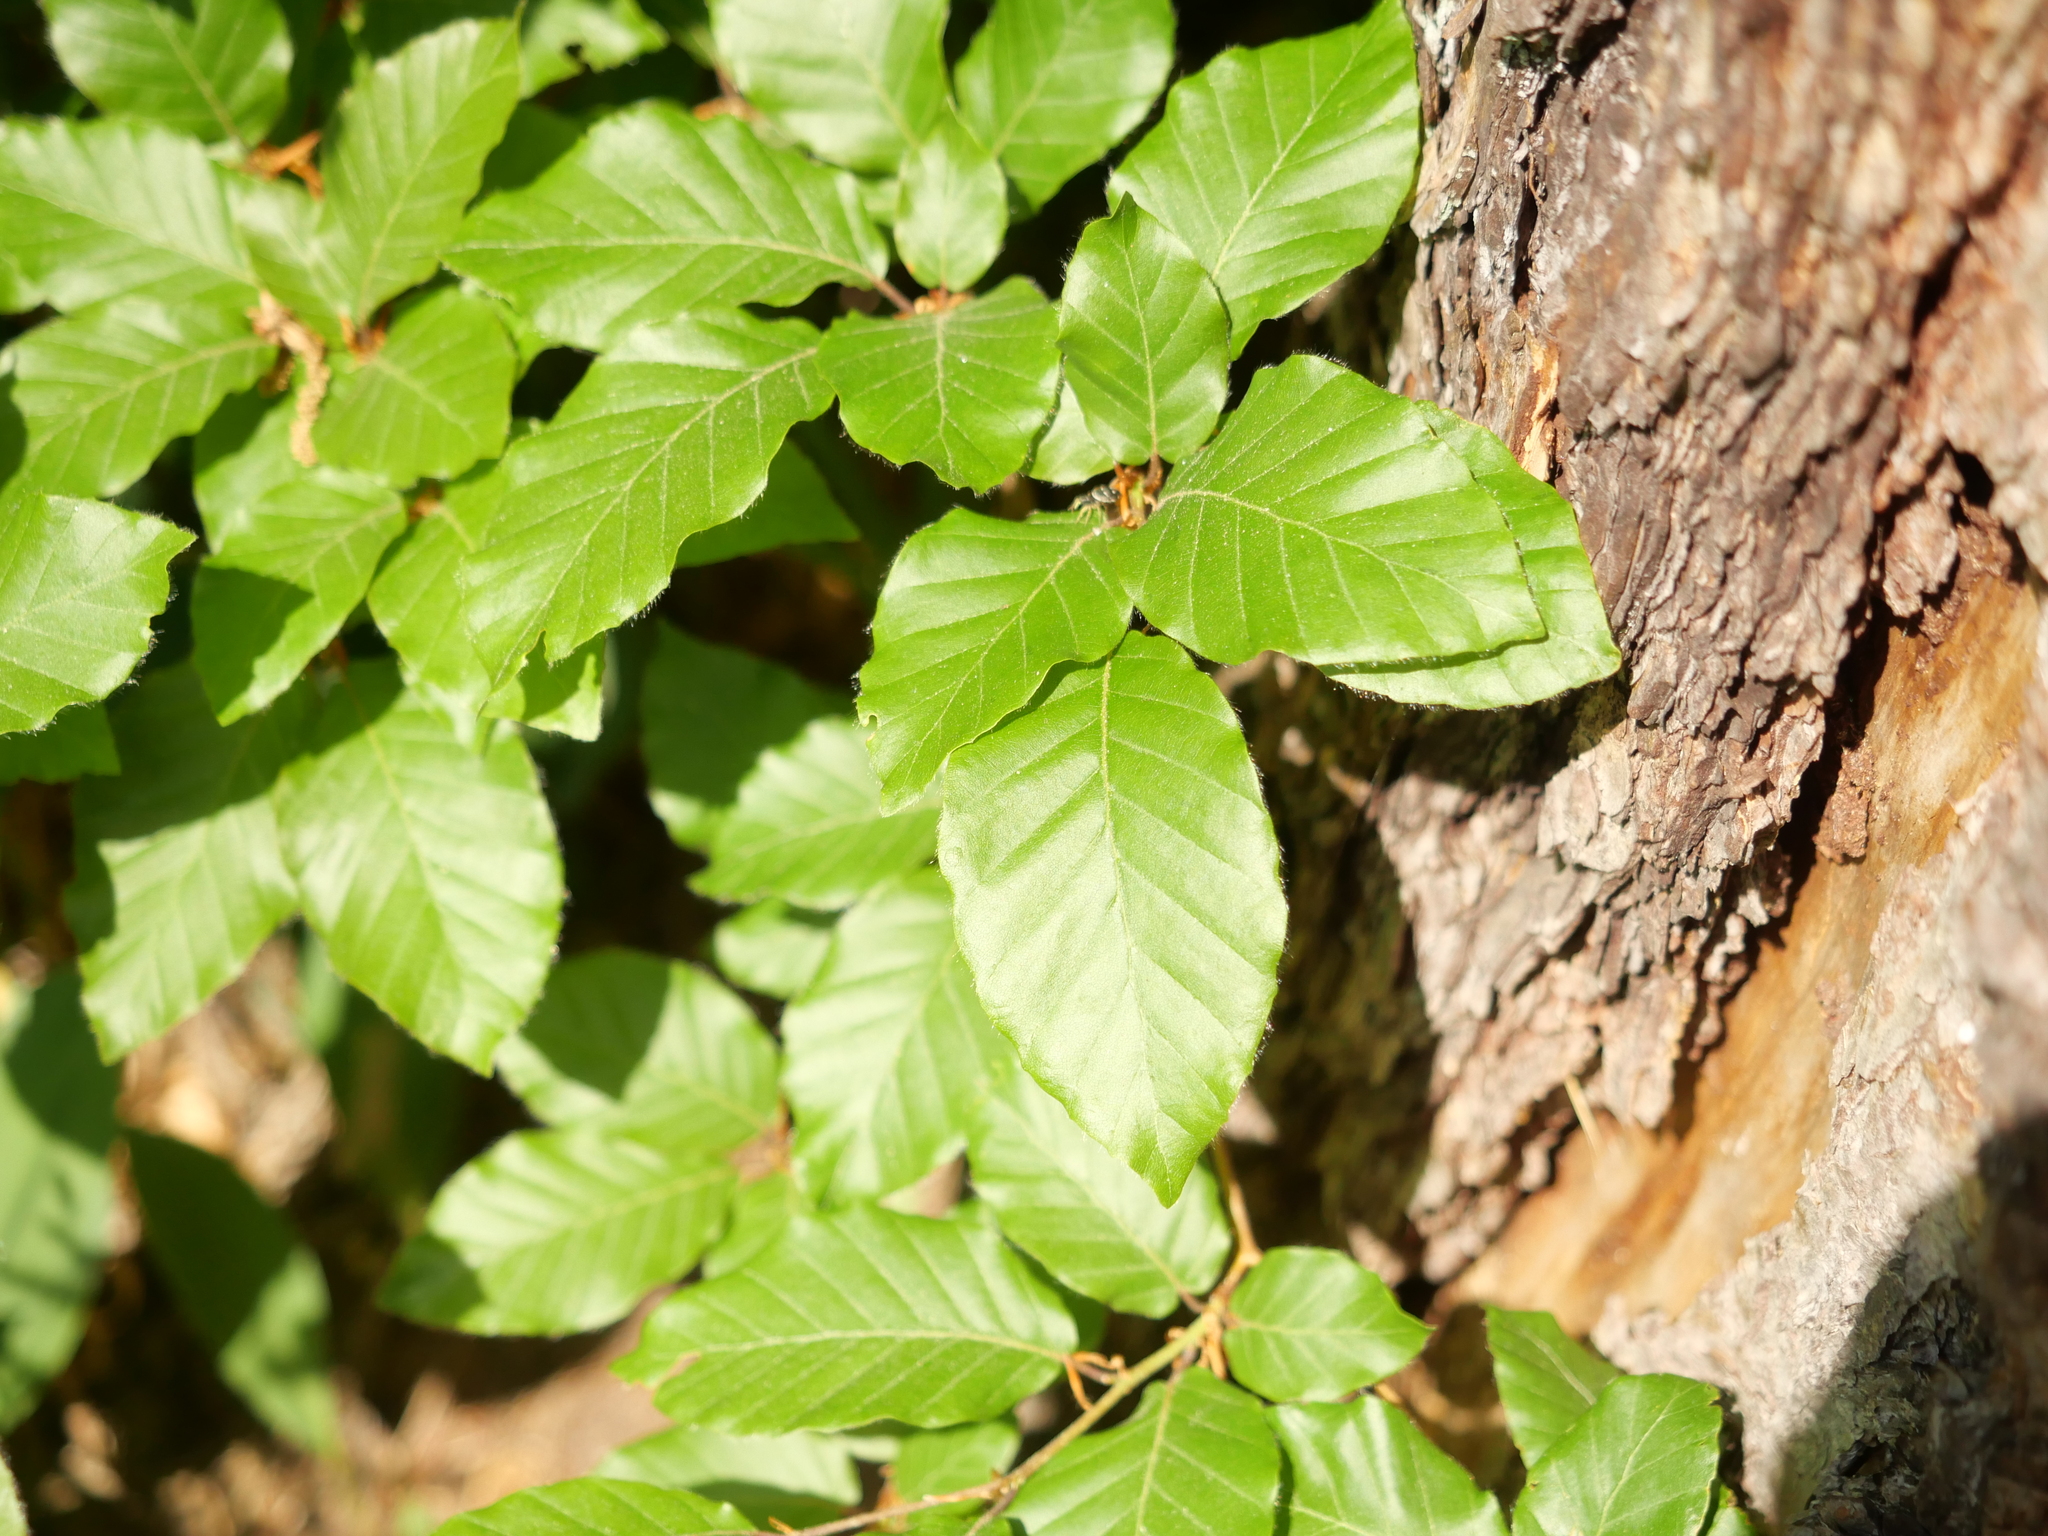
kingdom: Plantae
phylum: Tracheophyta
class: Magnoliopsida
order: Fagales
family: Fagaceae
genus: Fagus
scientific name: Fagus sylvatica
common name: Beech
